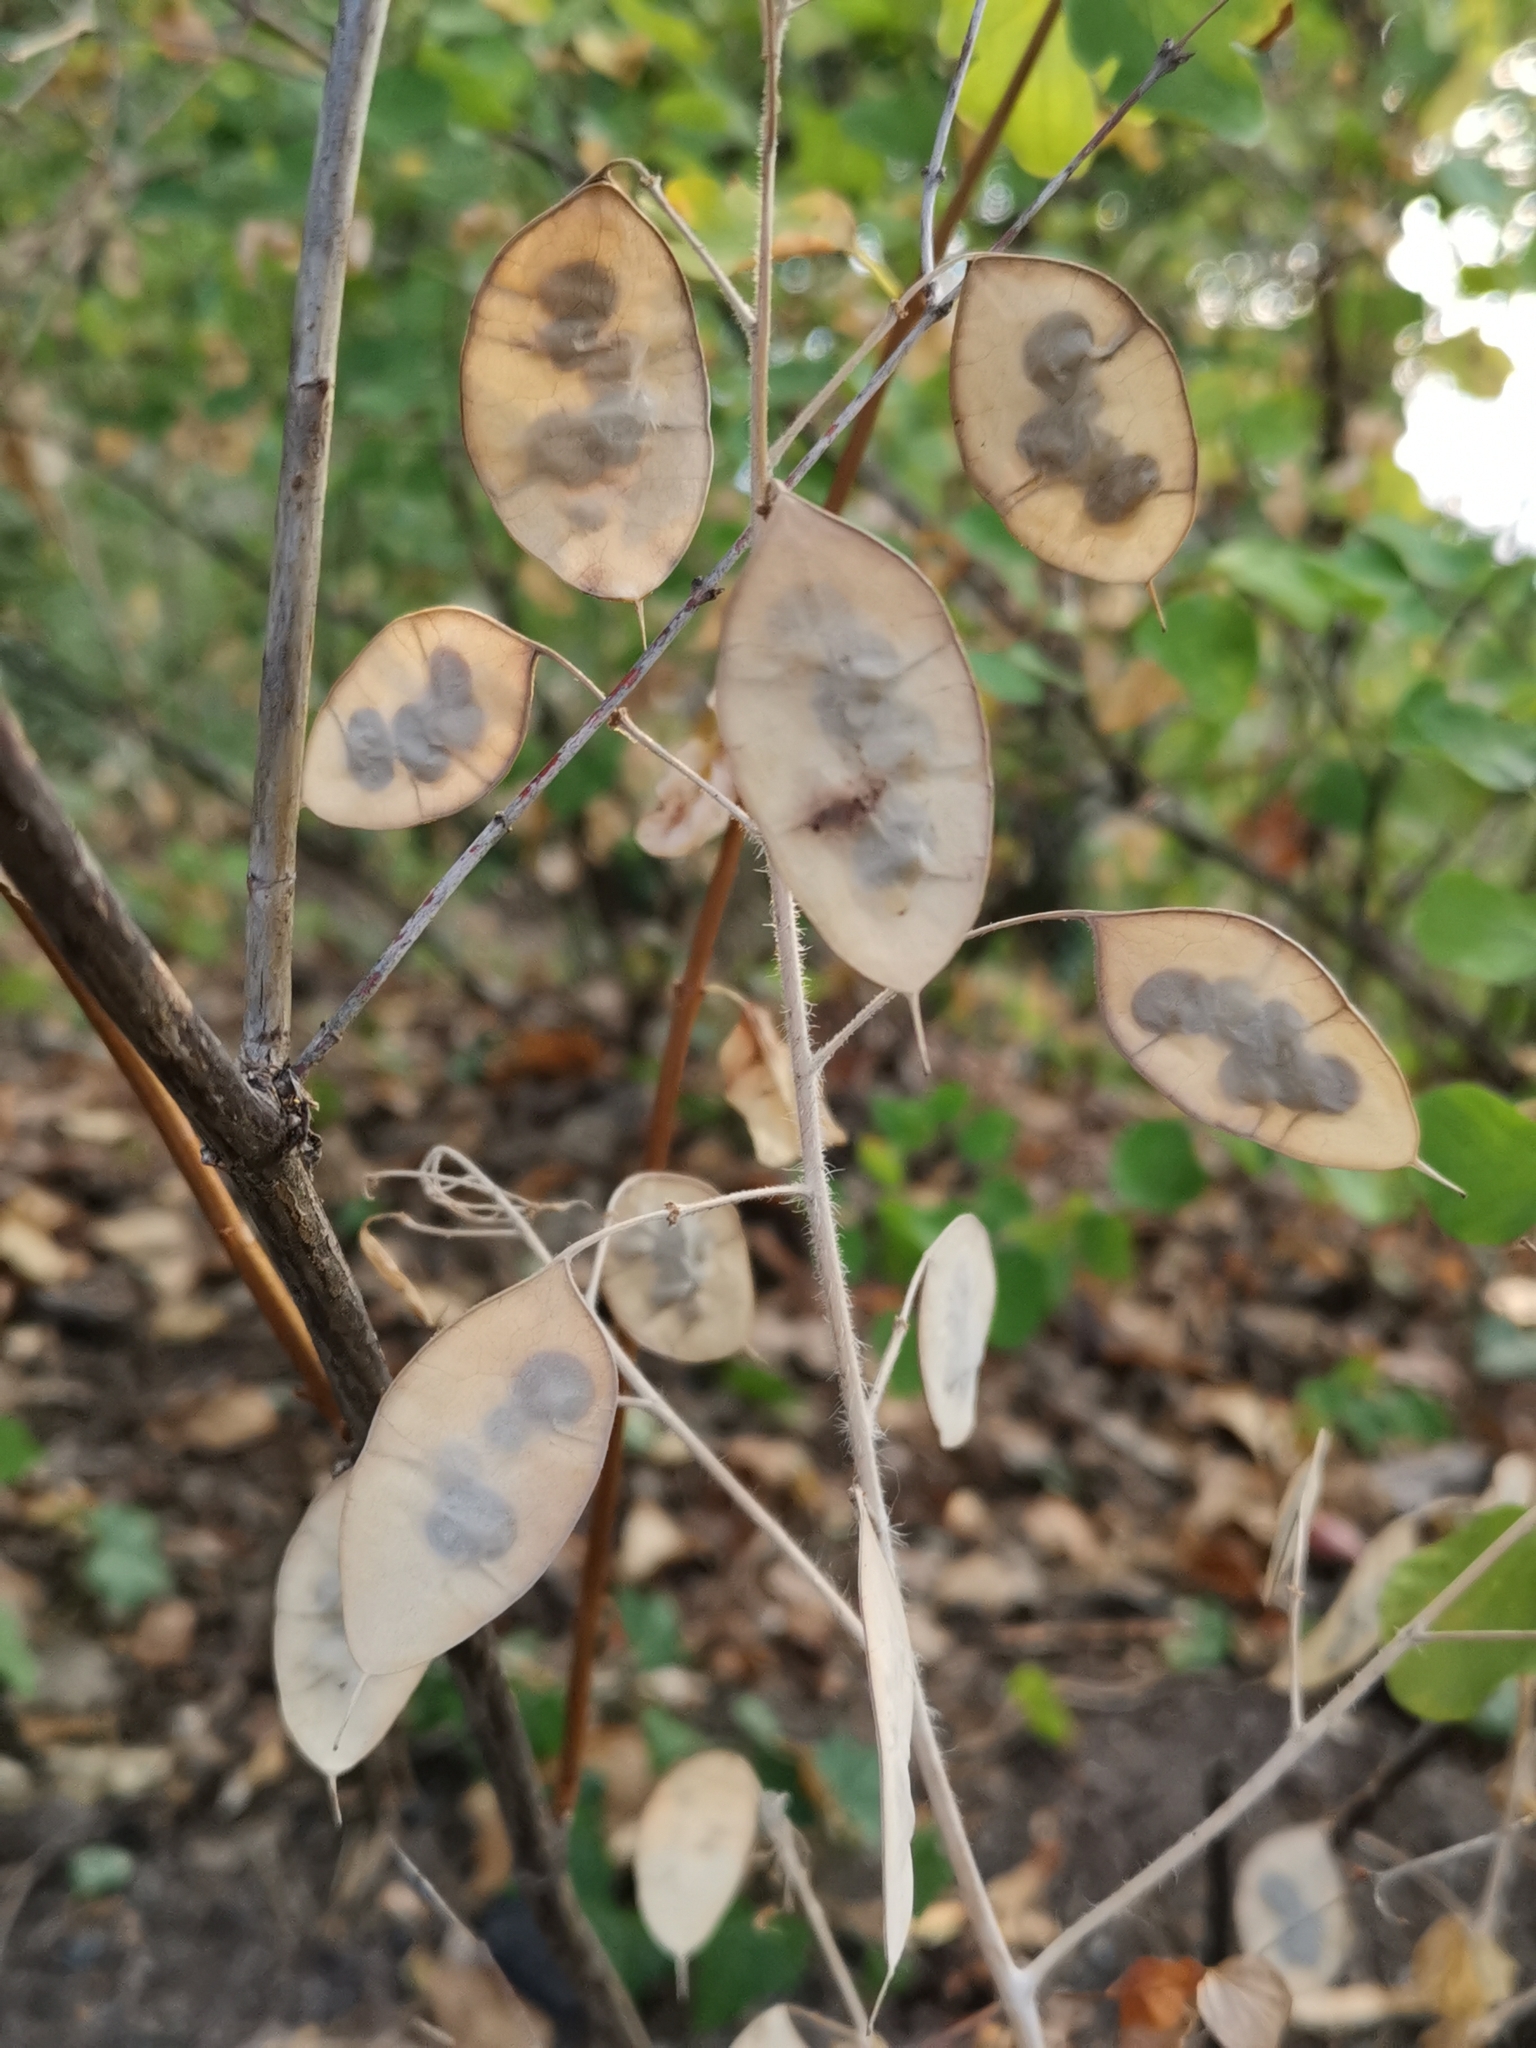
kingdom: Plantae
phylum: Tracheophyta
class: Magnoliopsida
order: Brassicales
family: Brassicaceae
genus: Lunaria
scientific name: Lunaria annua
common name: Honesty
